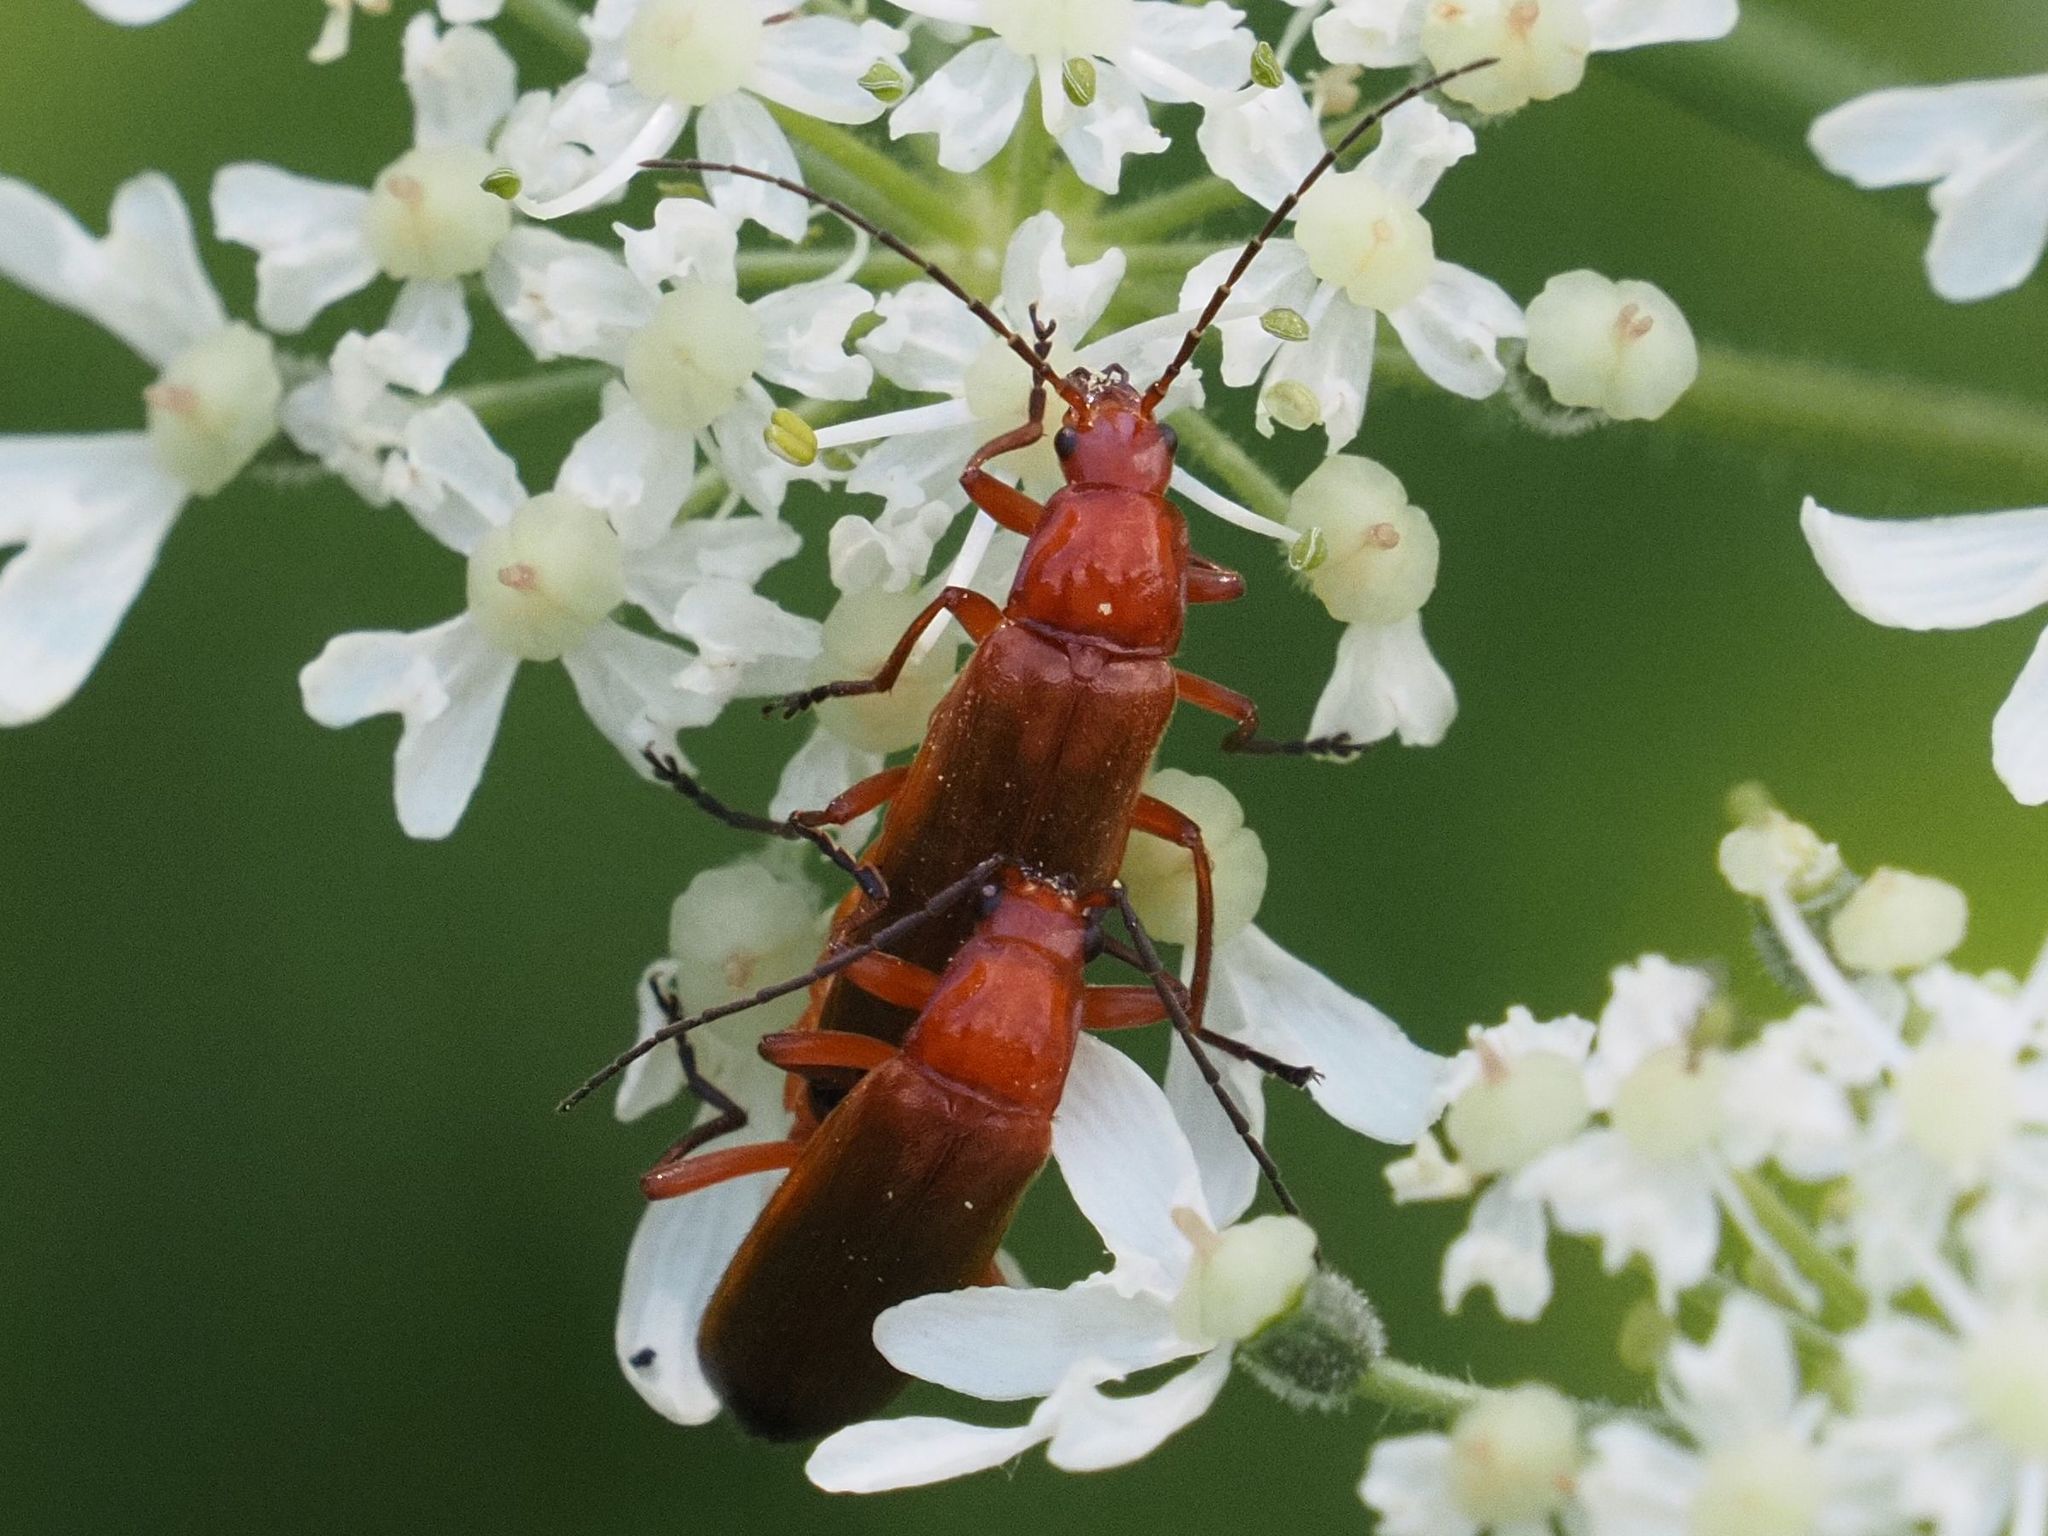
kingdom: Animalia
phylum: Arthropoda
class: Insecta
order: Coleoptera
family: Cantharidae
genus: Rhagonycha
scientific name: Rhagonycha fulva
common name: Common red soldier beetle
